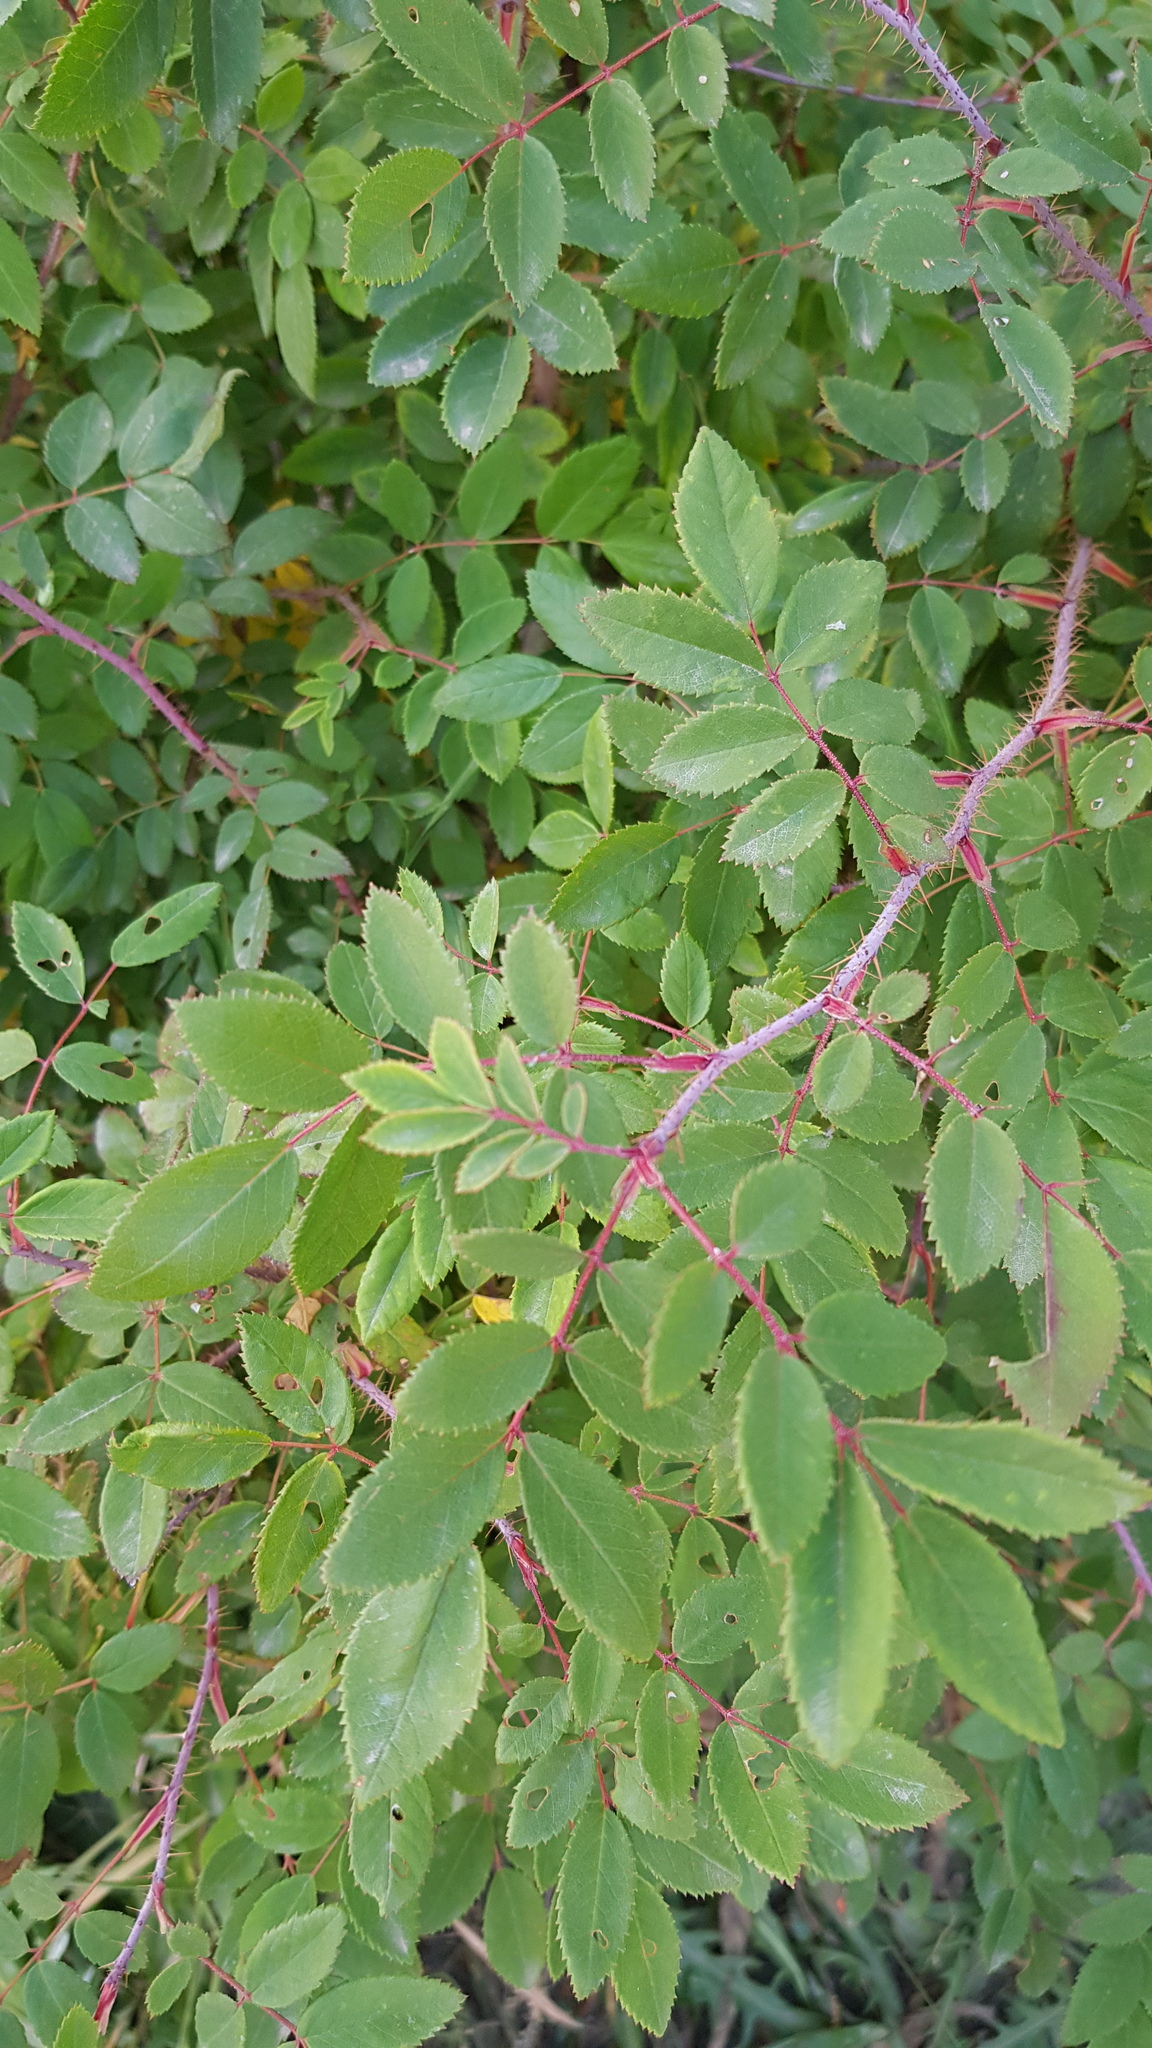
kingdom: Plantae
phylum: Tracheophyta
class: Magnoliopsida
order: Rosales
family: Rosaceae
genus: Rosa
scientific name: Rosa acicularis
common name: Prickly rose
